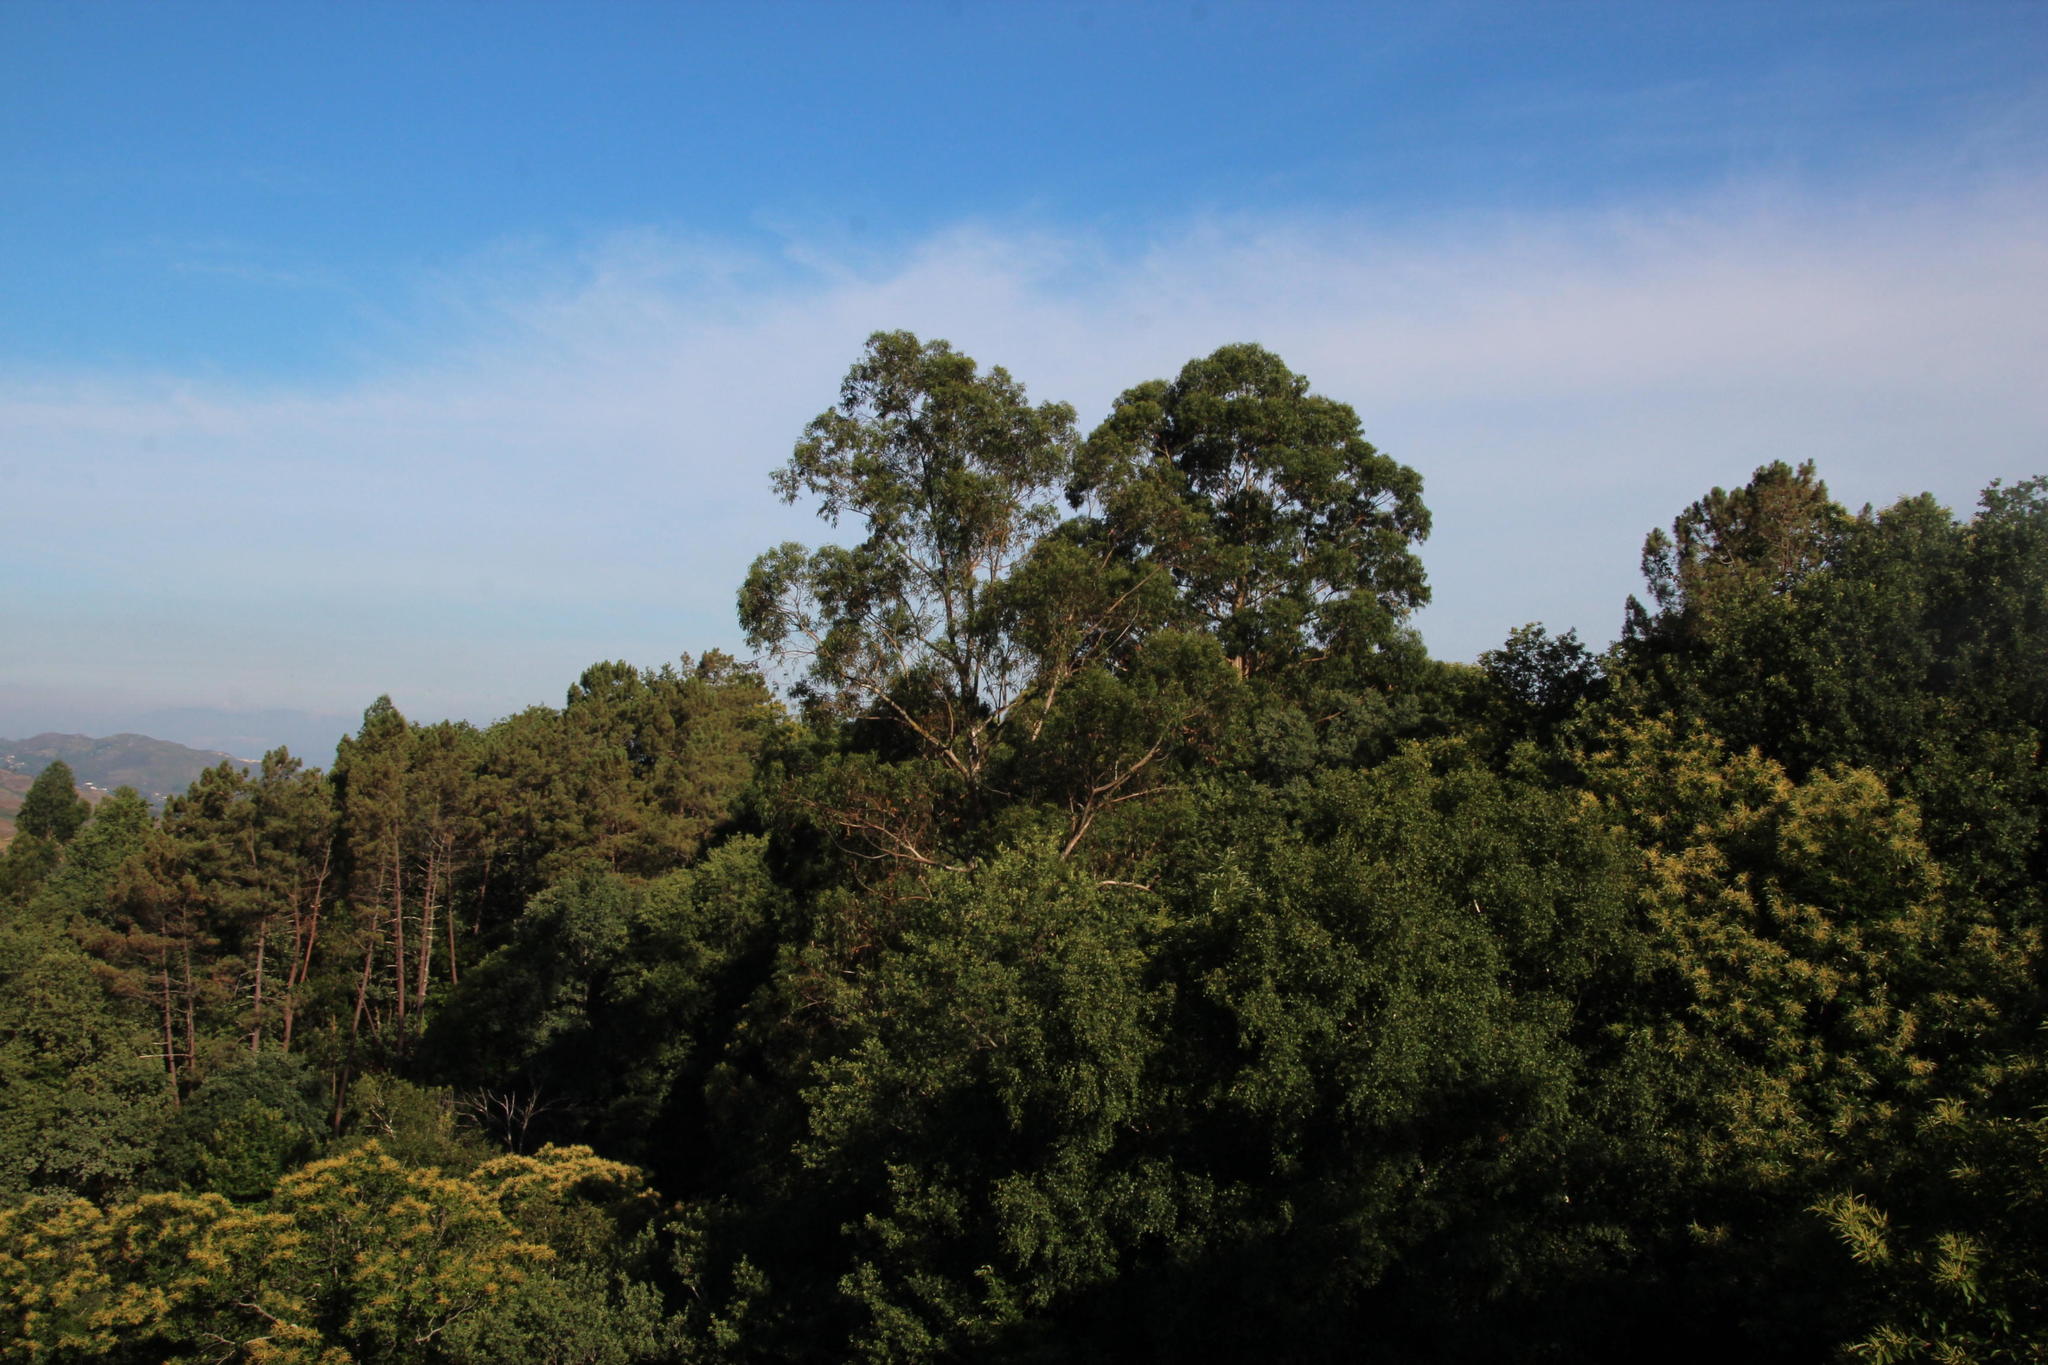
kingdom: Plantae
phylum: Tracheophyta
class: Magnoliopsida
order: Myrtales
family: Myrtaceae
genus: Eucalyptus
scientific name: Eucalyptus globulus
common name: Southern blue-gum
